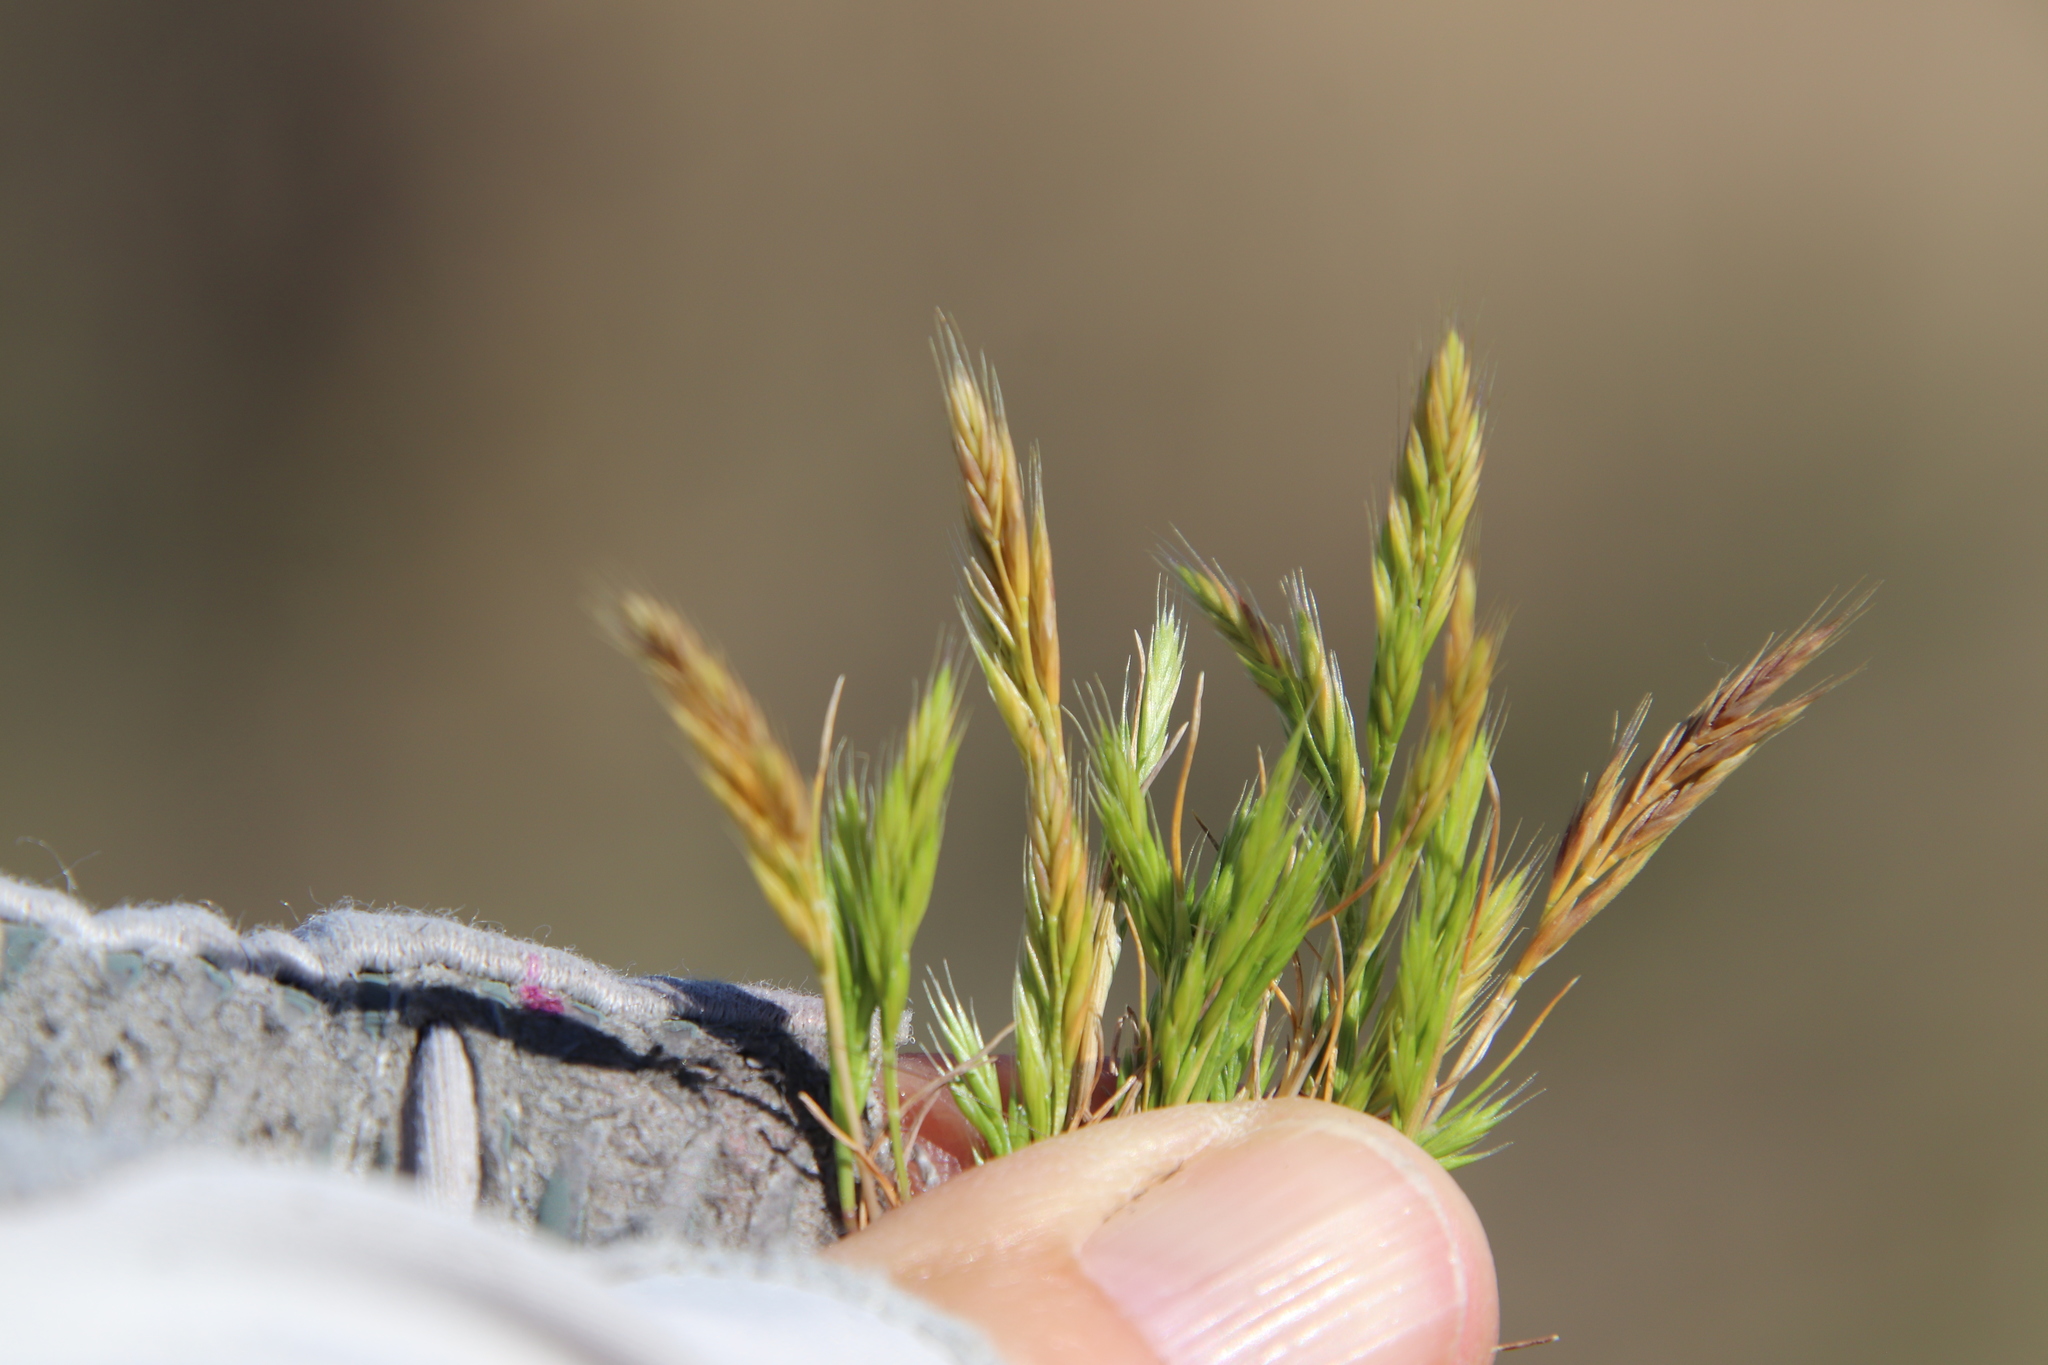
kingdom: Plantae
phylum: Tracheophyta
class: Liliopsida
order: Poales
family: Poaceae
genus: Festuca
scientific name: Festuca octoflora
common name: Sixweeks grass
